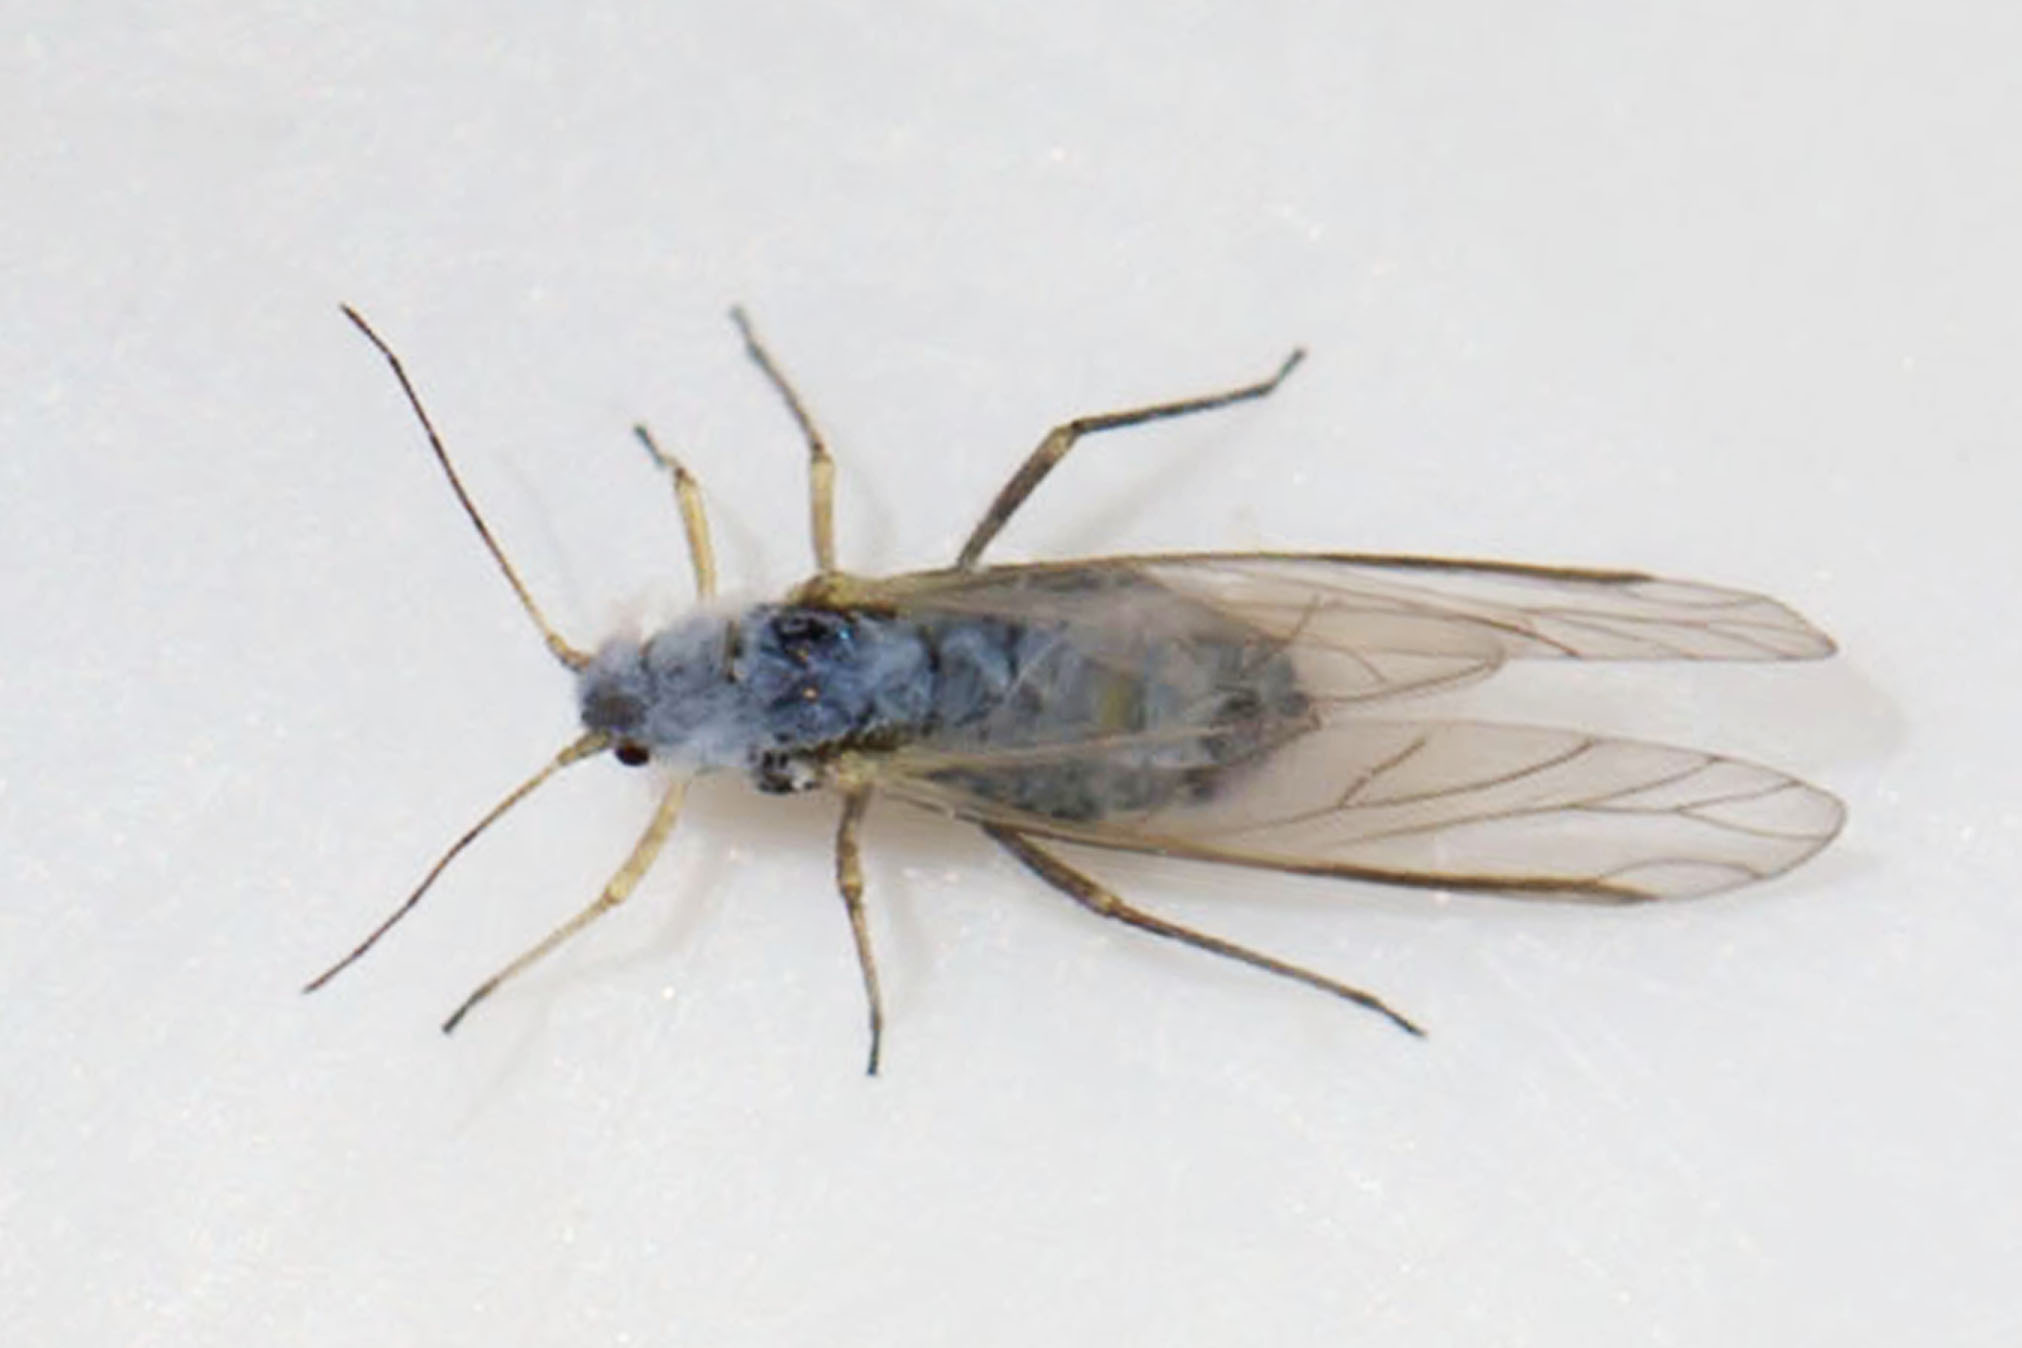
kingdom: Animalia
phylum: Arthropoda
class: Insecta
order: Hemiptera
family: Aphididae
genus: Phyllaphis
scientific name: Phyllaphis fagi
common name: Beech aphid
